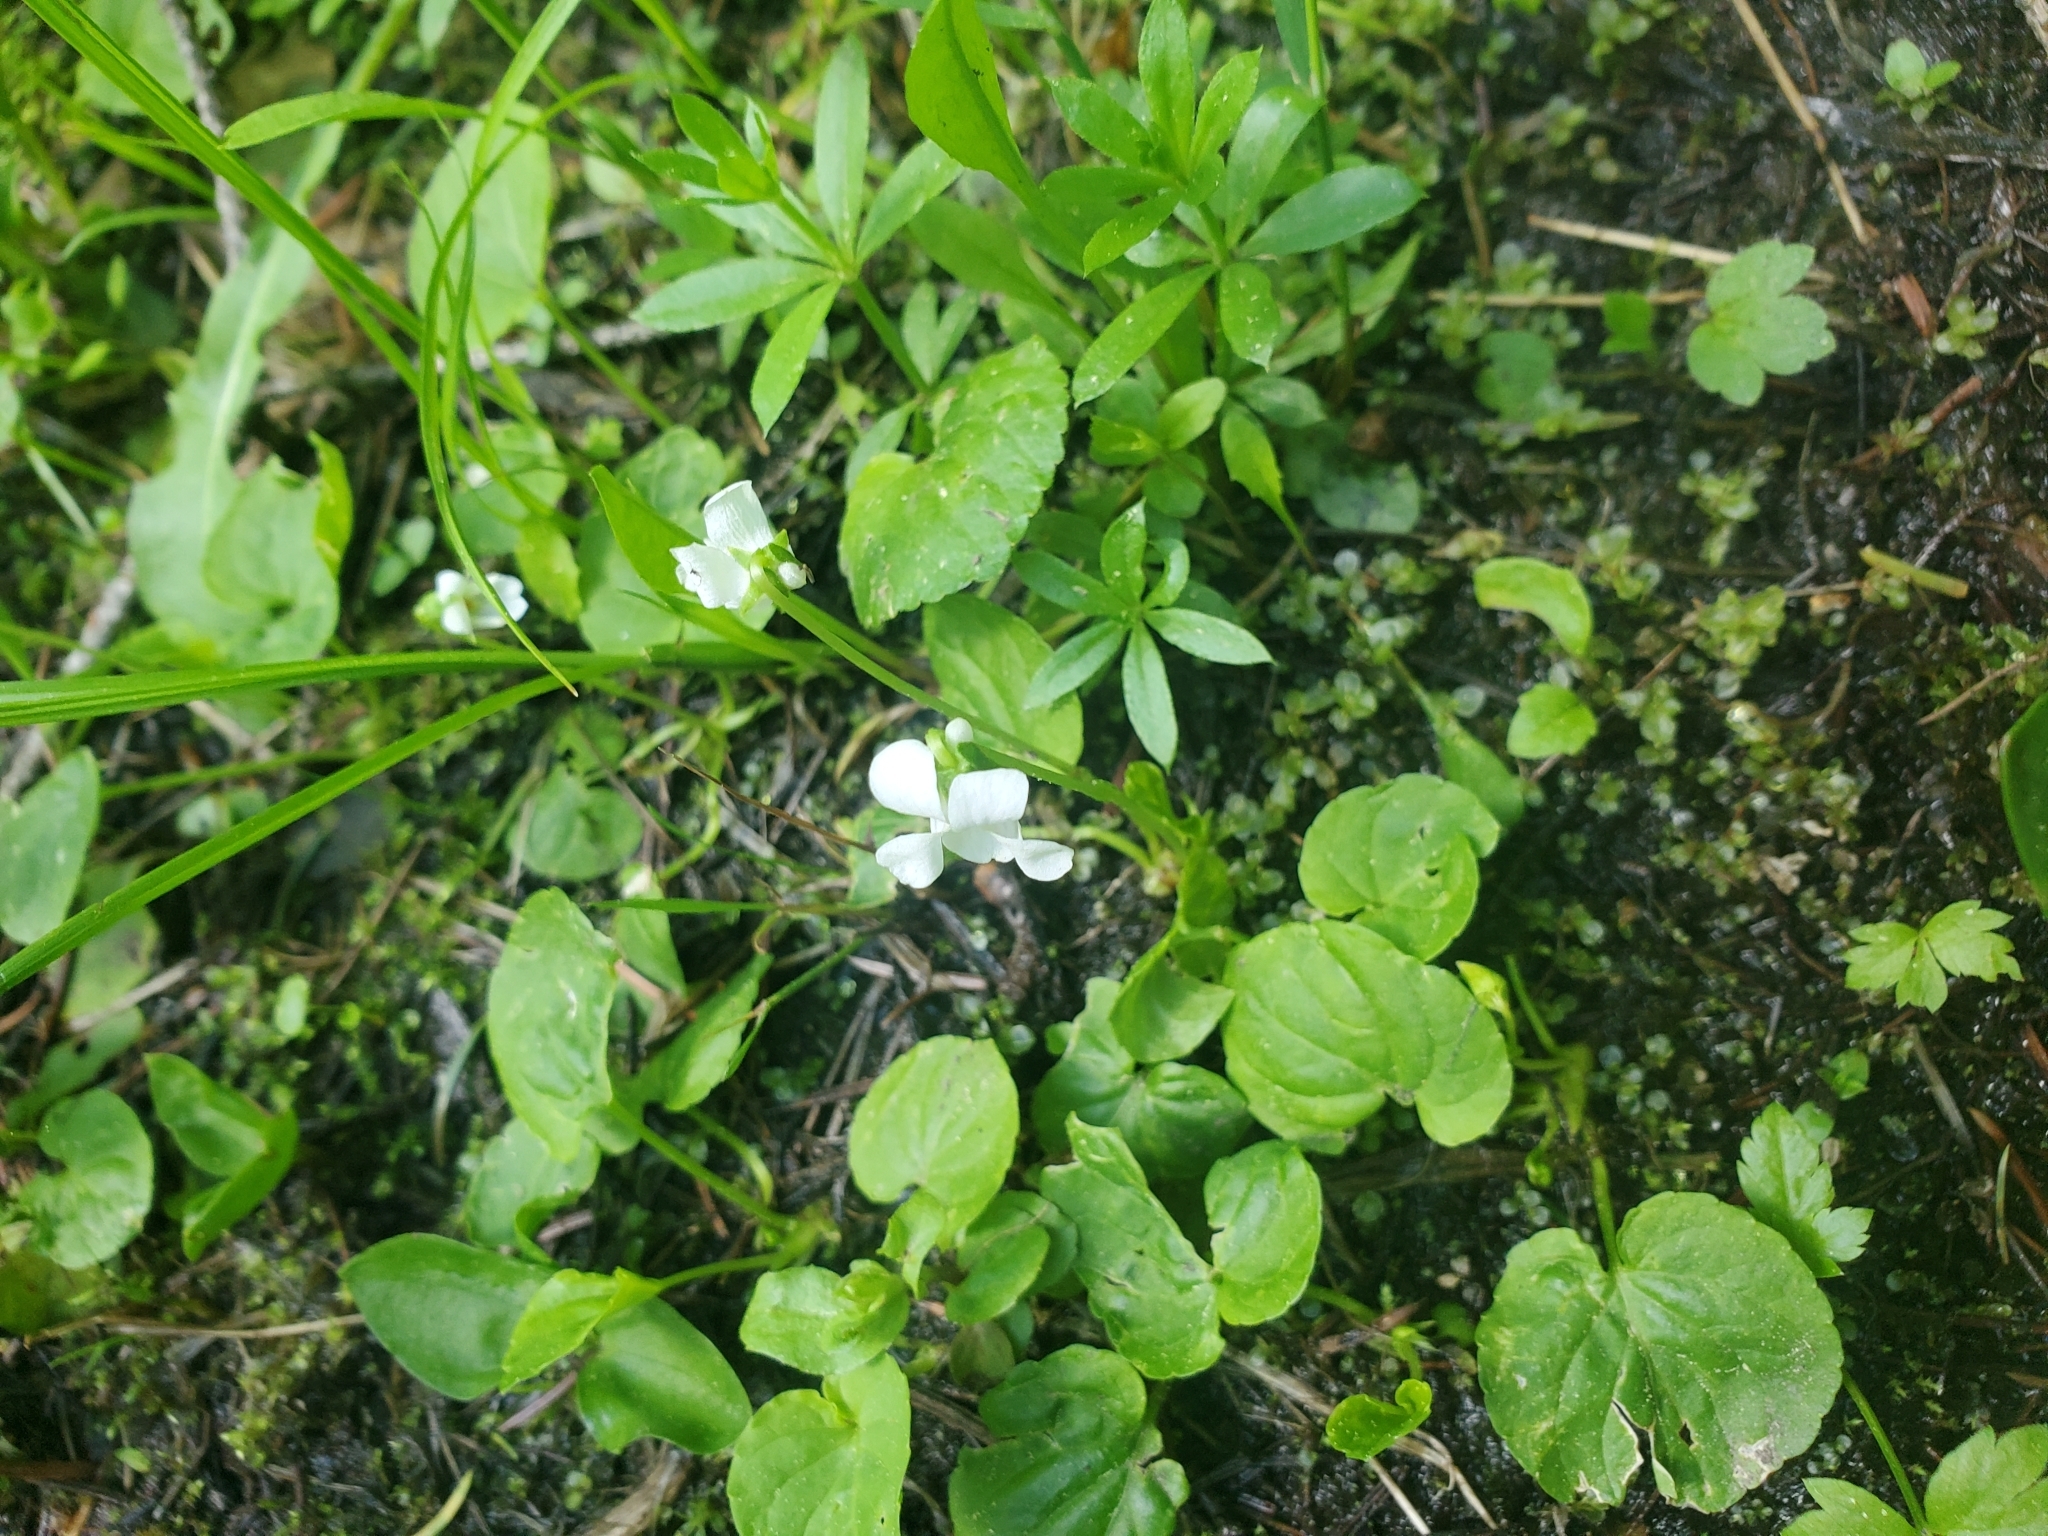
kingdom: Plantae
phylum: Tracheophyta
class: Magnoliopsida
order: Malpighiales
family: Violaceae
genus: Viola
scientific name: Viola minuscula
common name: Northern white violet
